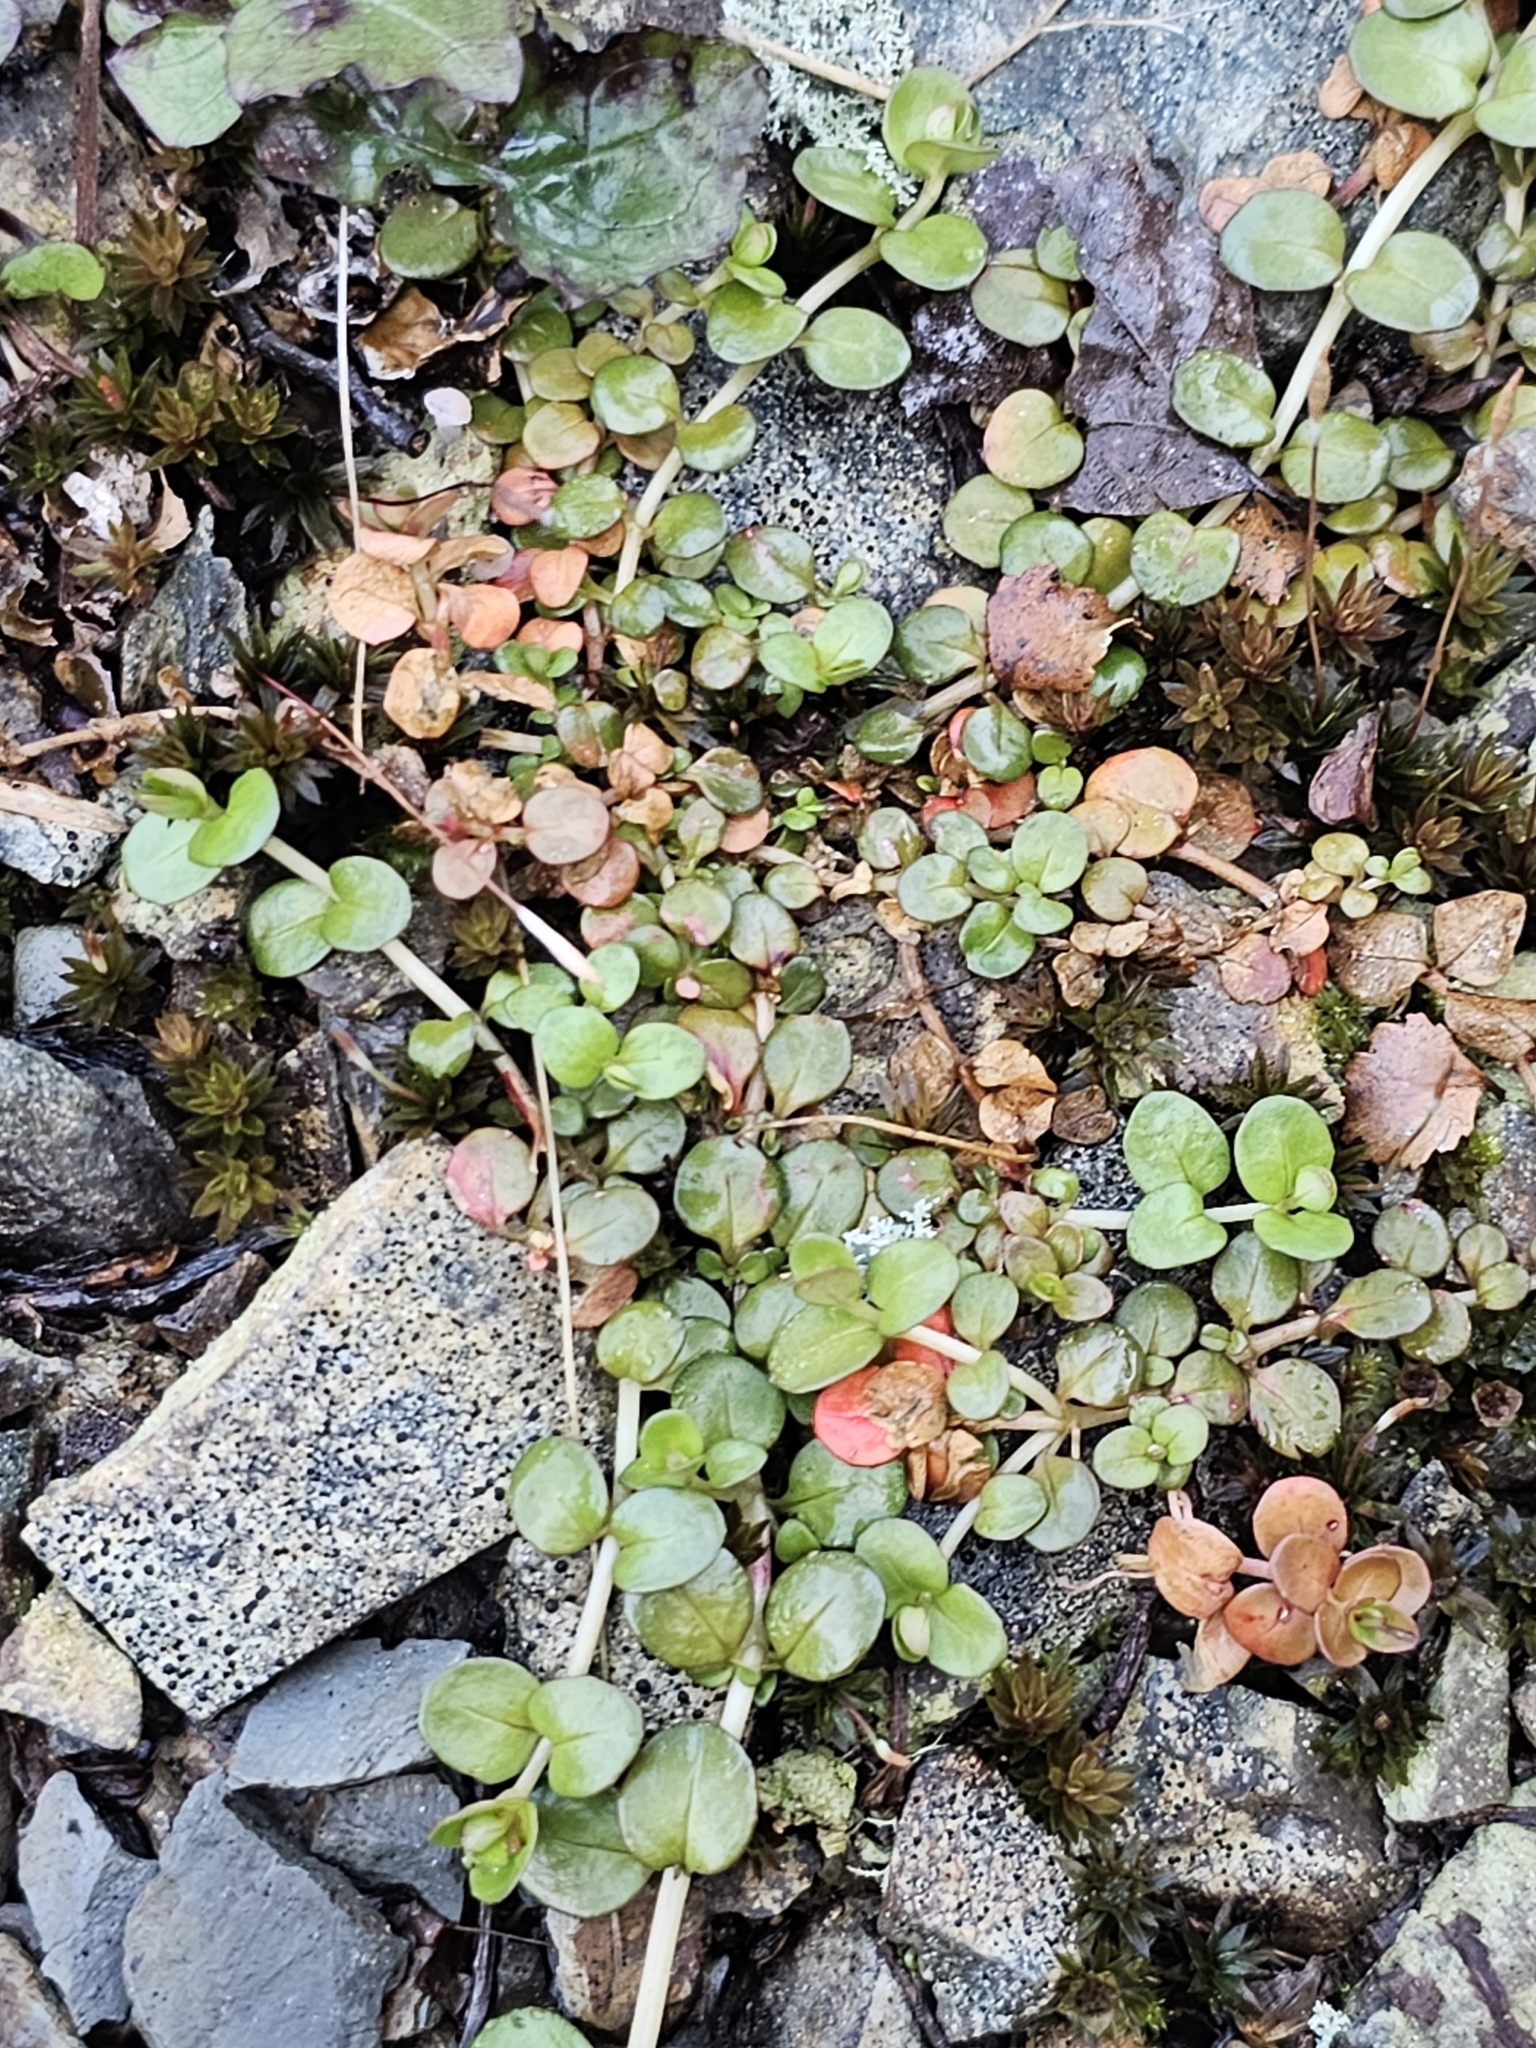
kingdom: Plantae
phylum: Tracheophyta
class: Magnoliopsida
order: Myrtales
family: Onagraceae
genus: Epilobium
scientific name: Epilobium brunnescens
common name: New zealand willowherb
